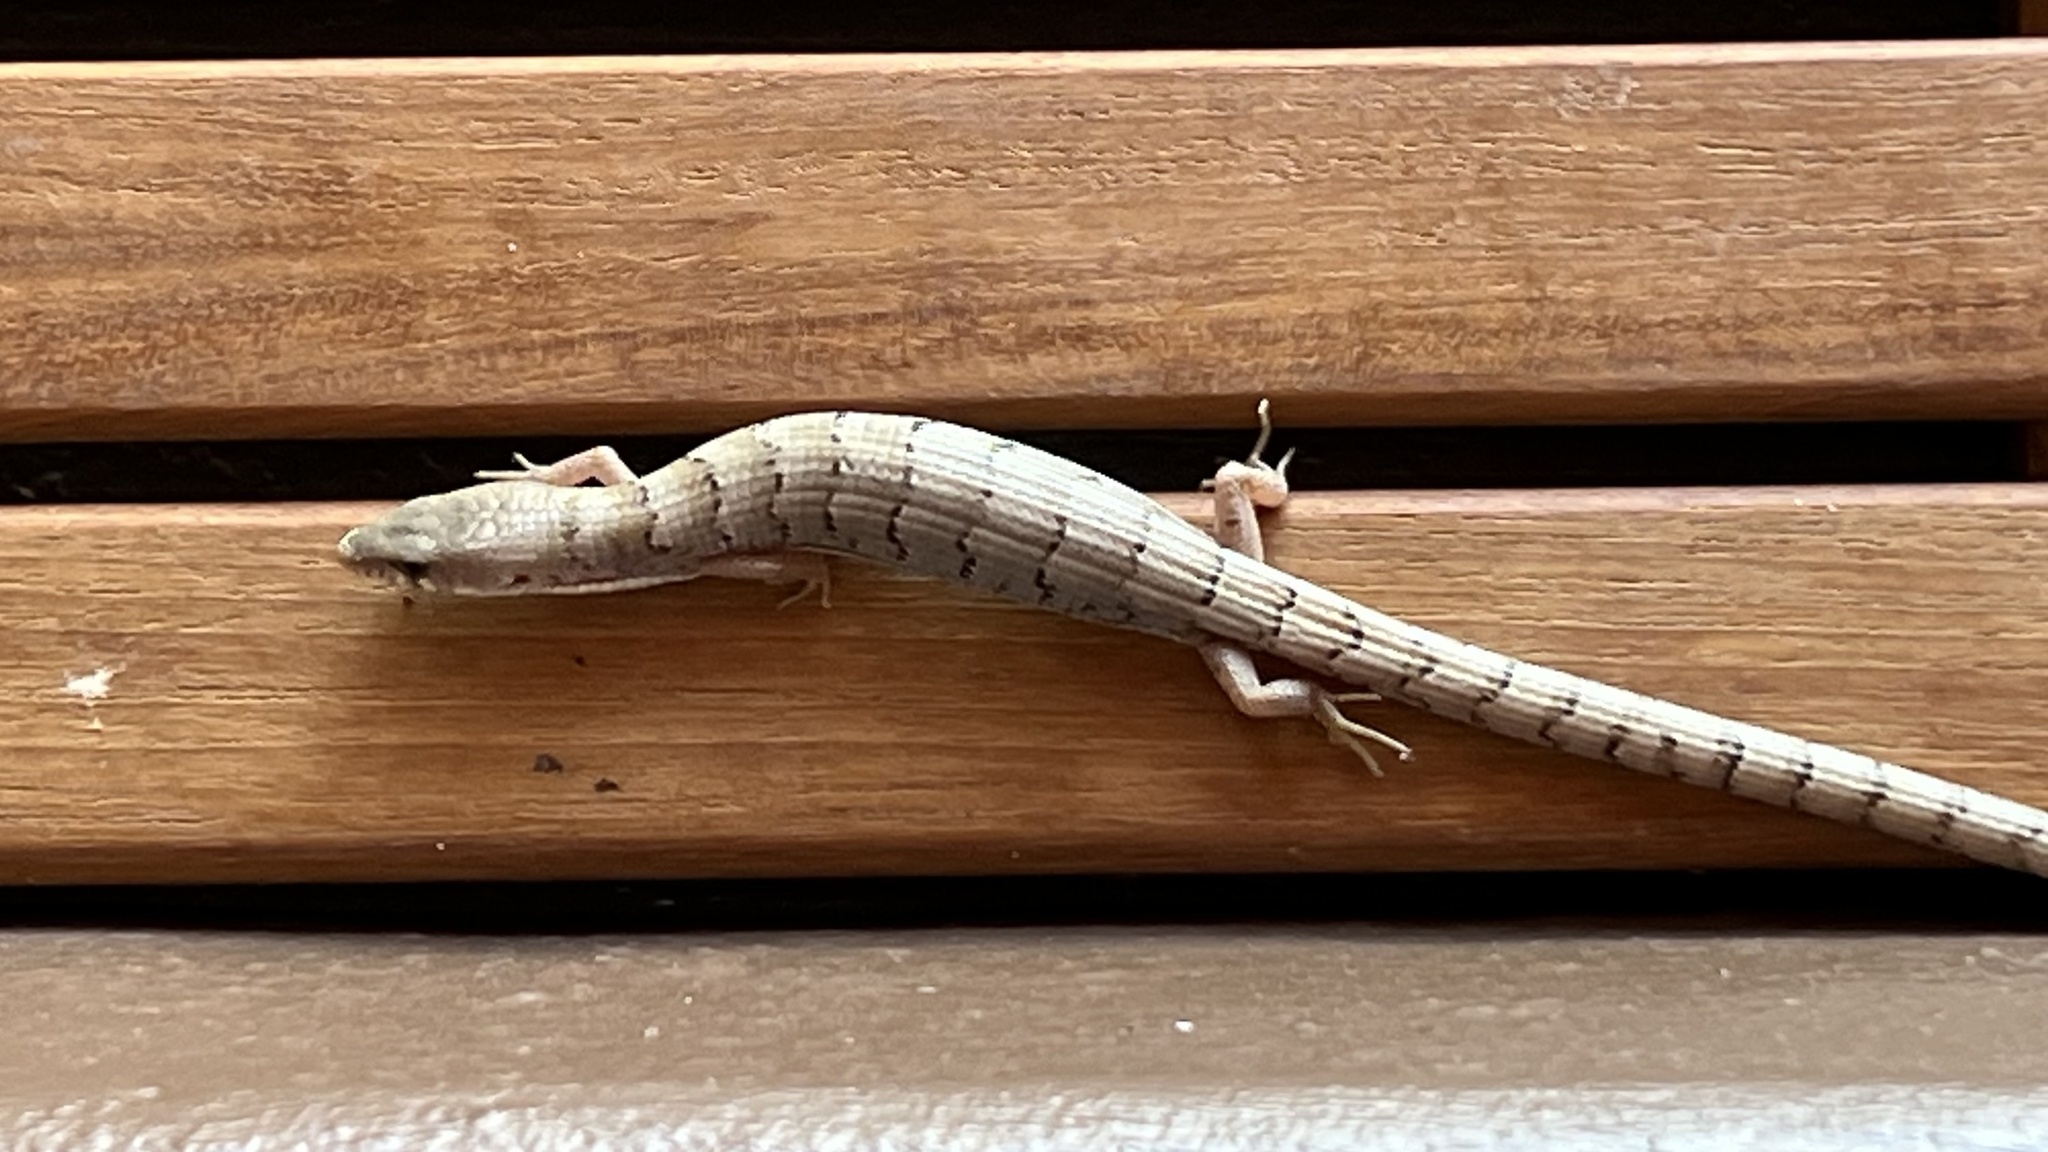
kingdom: Animalia
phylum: Chordata
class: Squamata
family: Anguidae
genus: Elgaria
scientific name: Elgaria kingii
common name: Madrean alligator lizard
